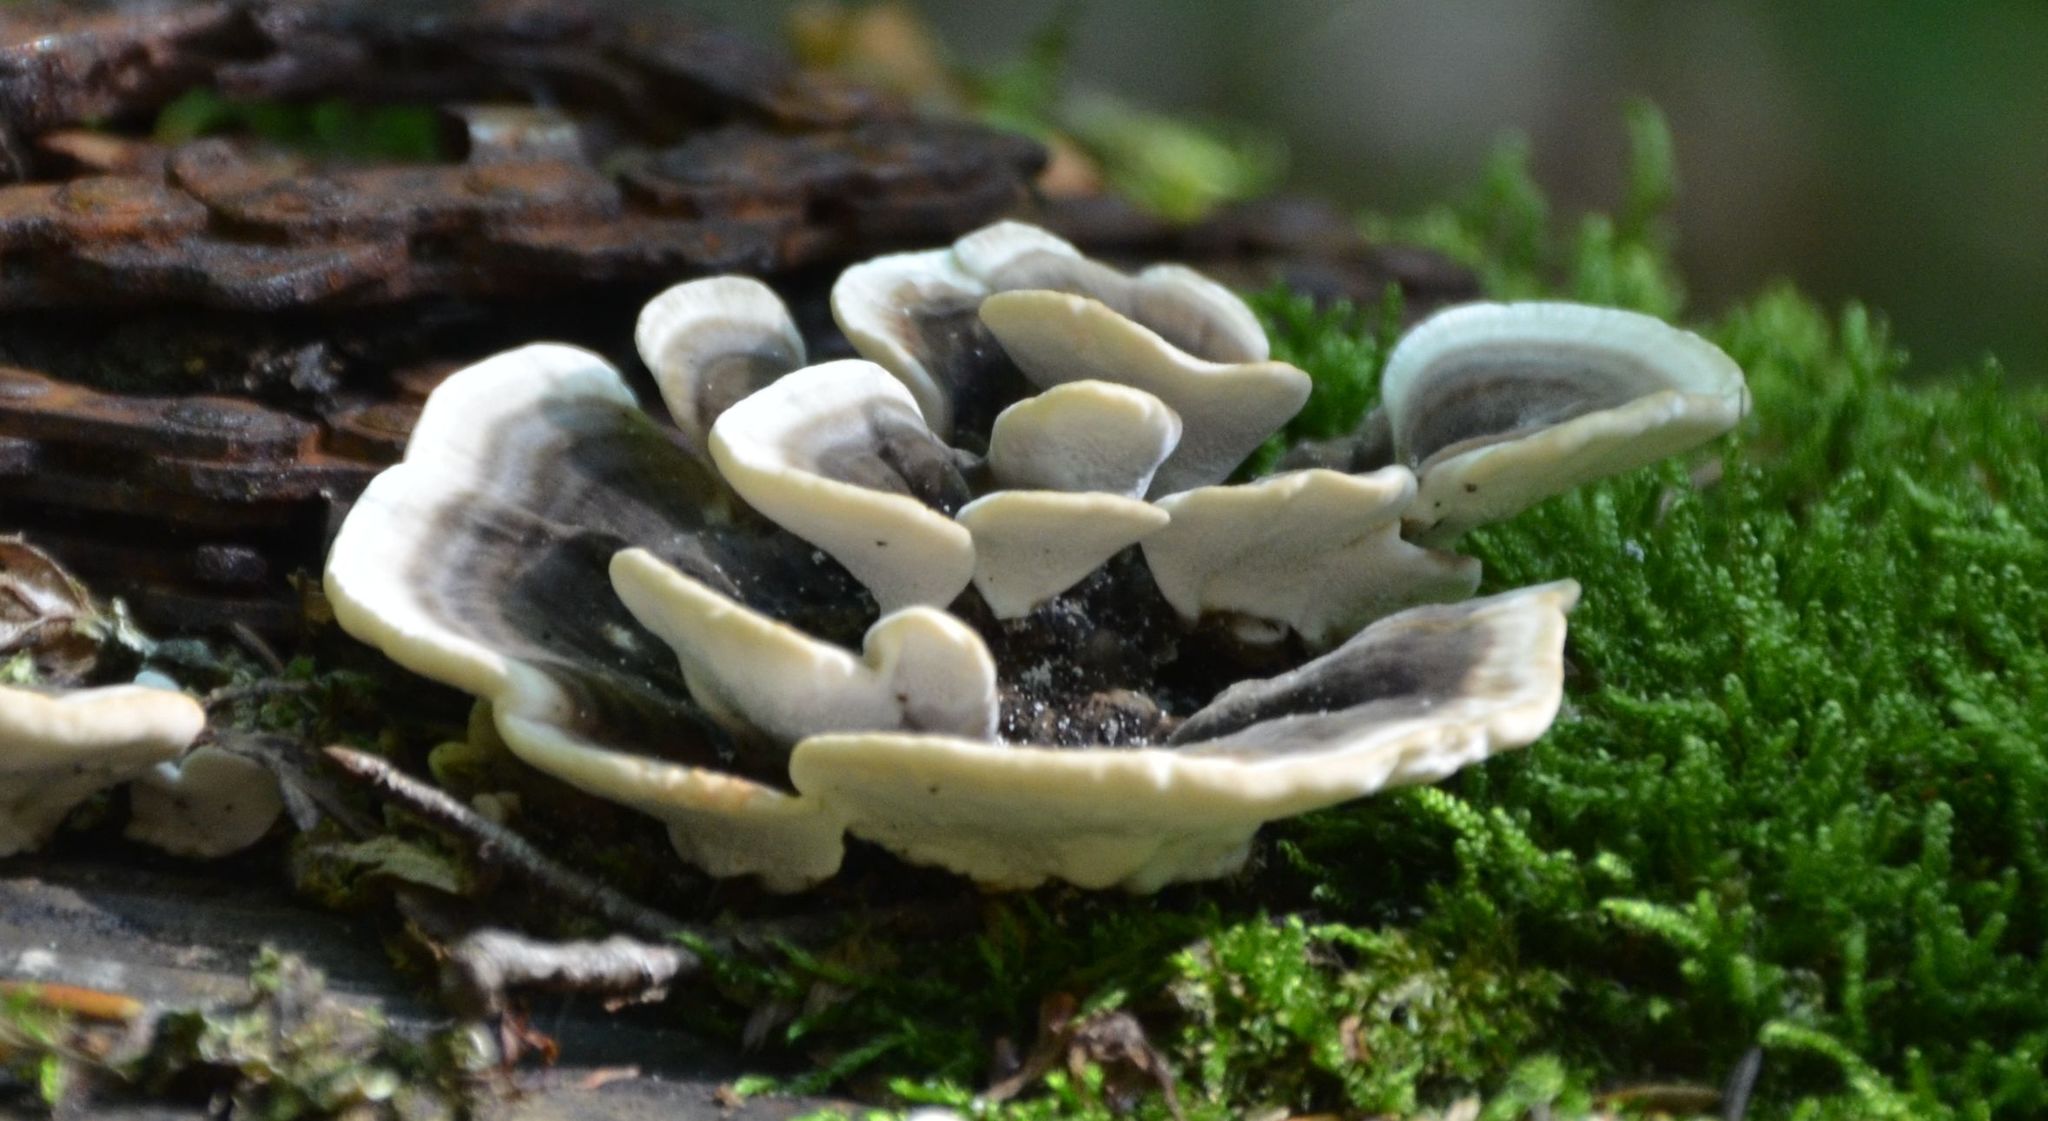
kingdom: Fungi
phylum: Basidiomycota
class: Agaricomycetes
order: Polyporales
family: Polyporaceae
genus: Trametes
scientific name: Trametes versicolor
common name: Turkeytail
